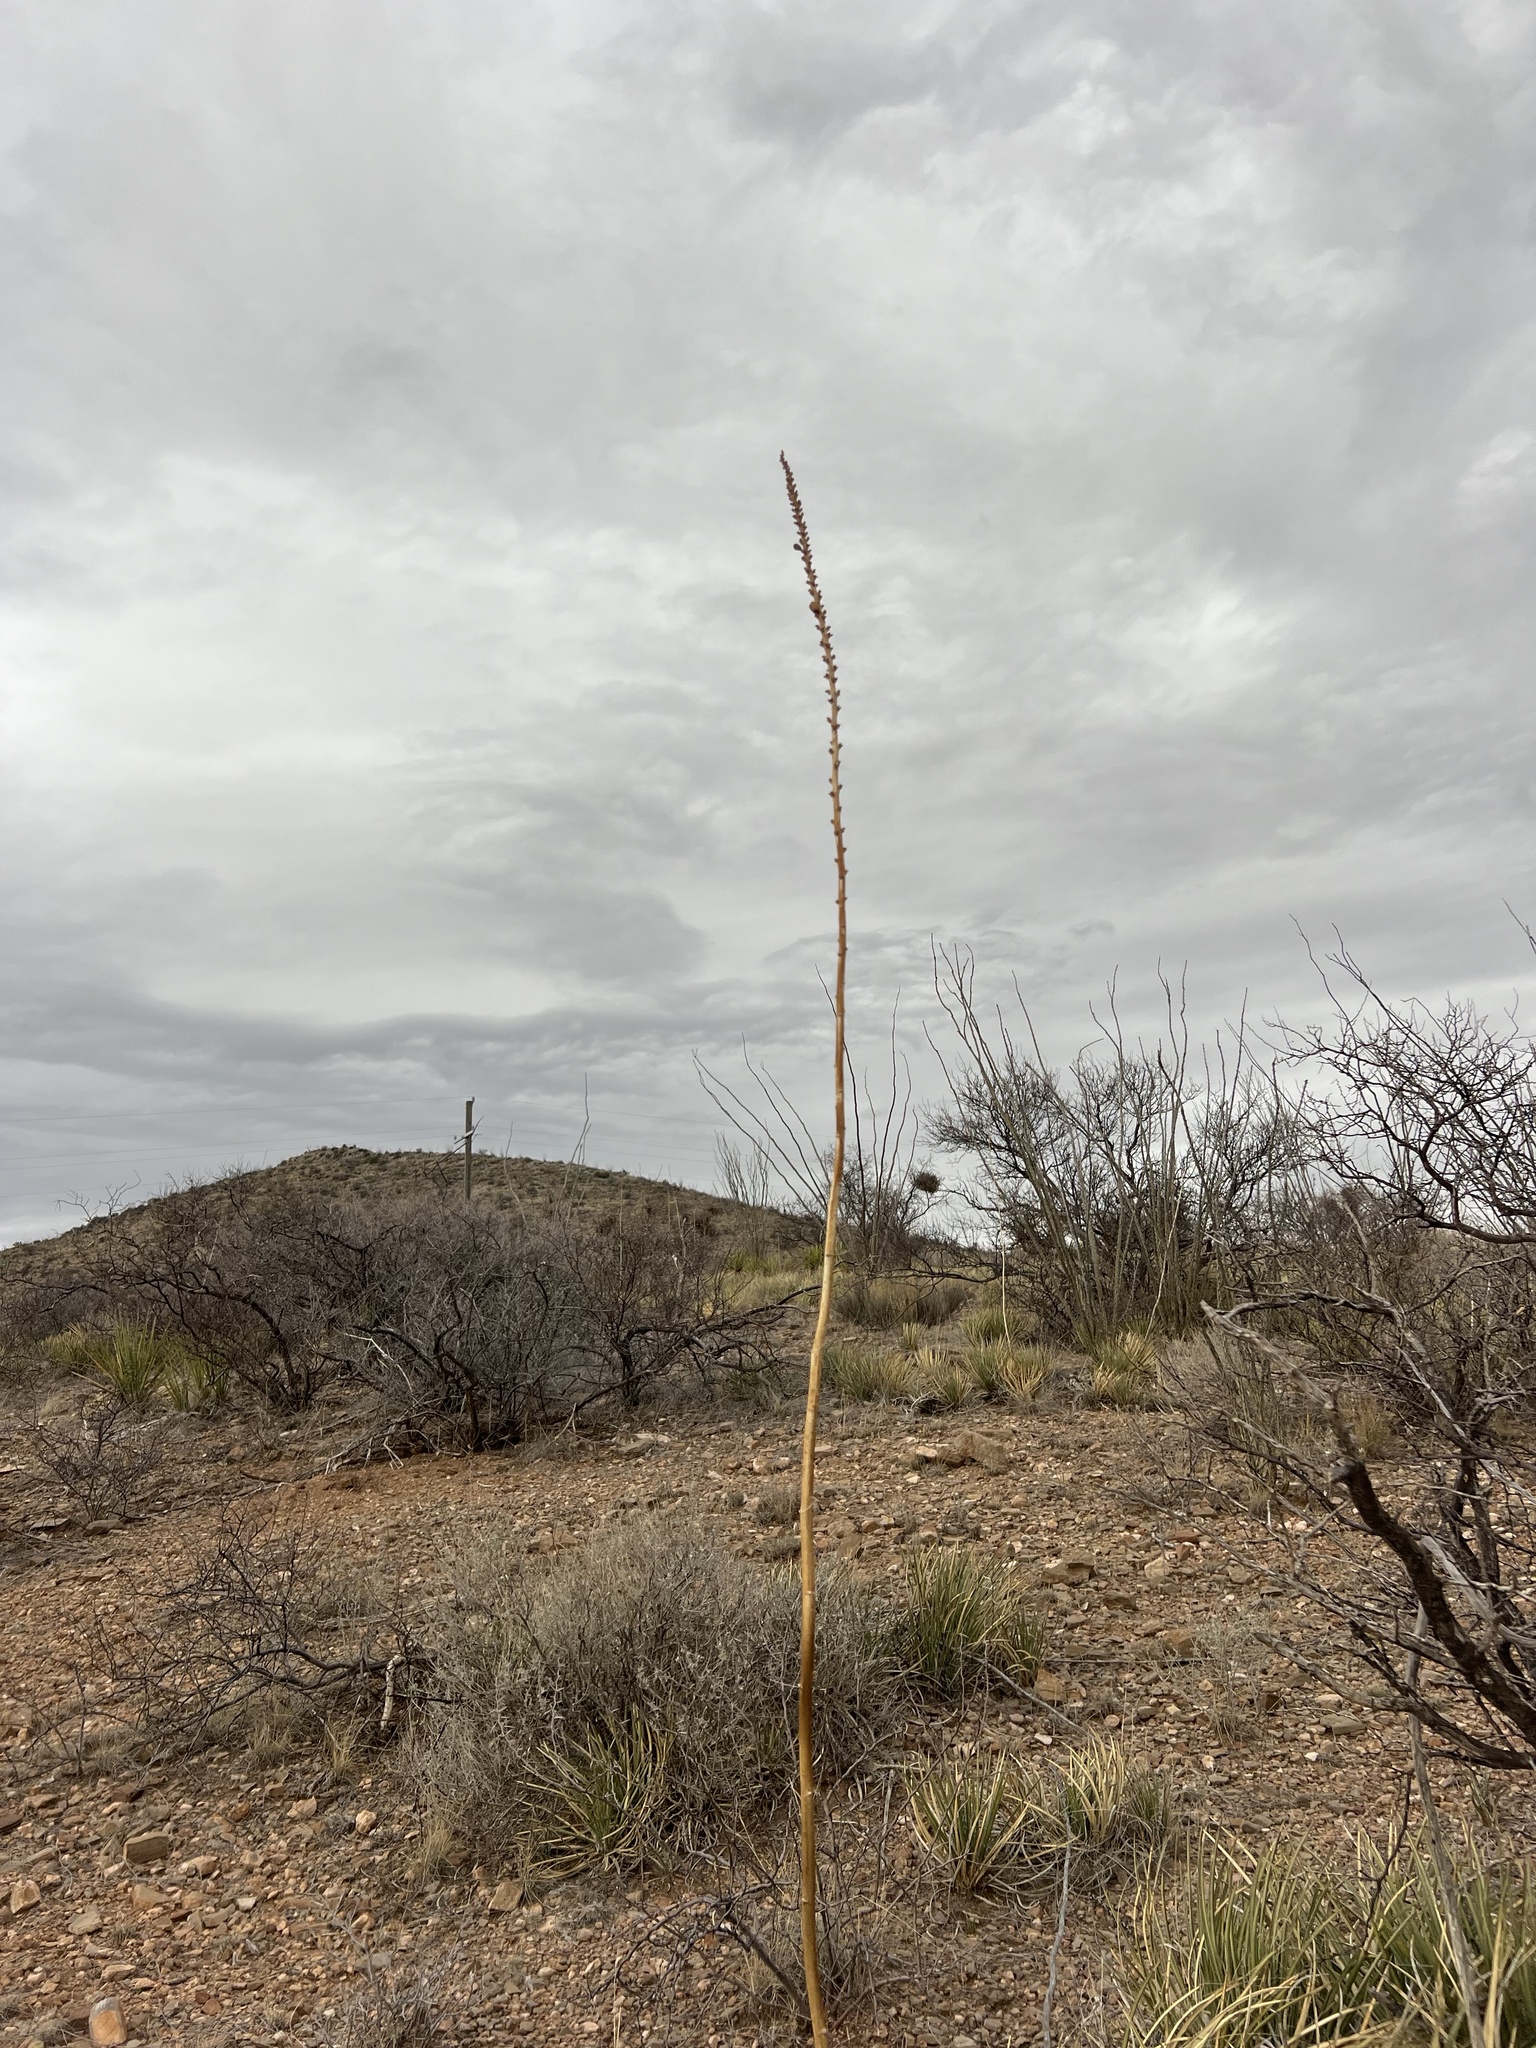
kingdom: Plantae
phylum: Tracheophyta
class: Liliopsida
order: Asparagales
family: Asparagaceae
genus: Agave
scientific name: Agave schottii
